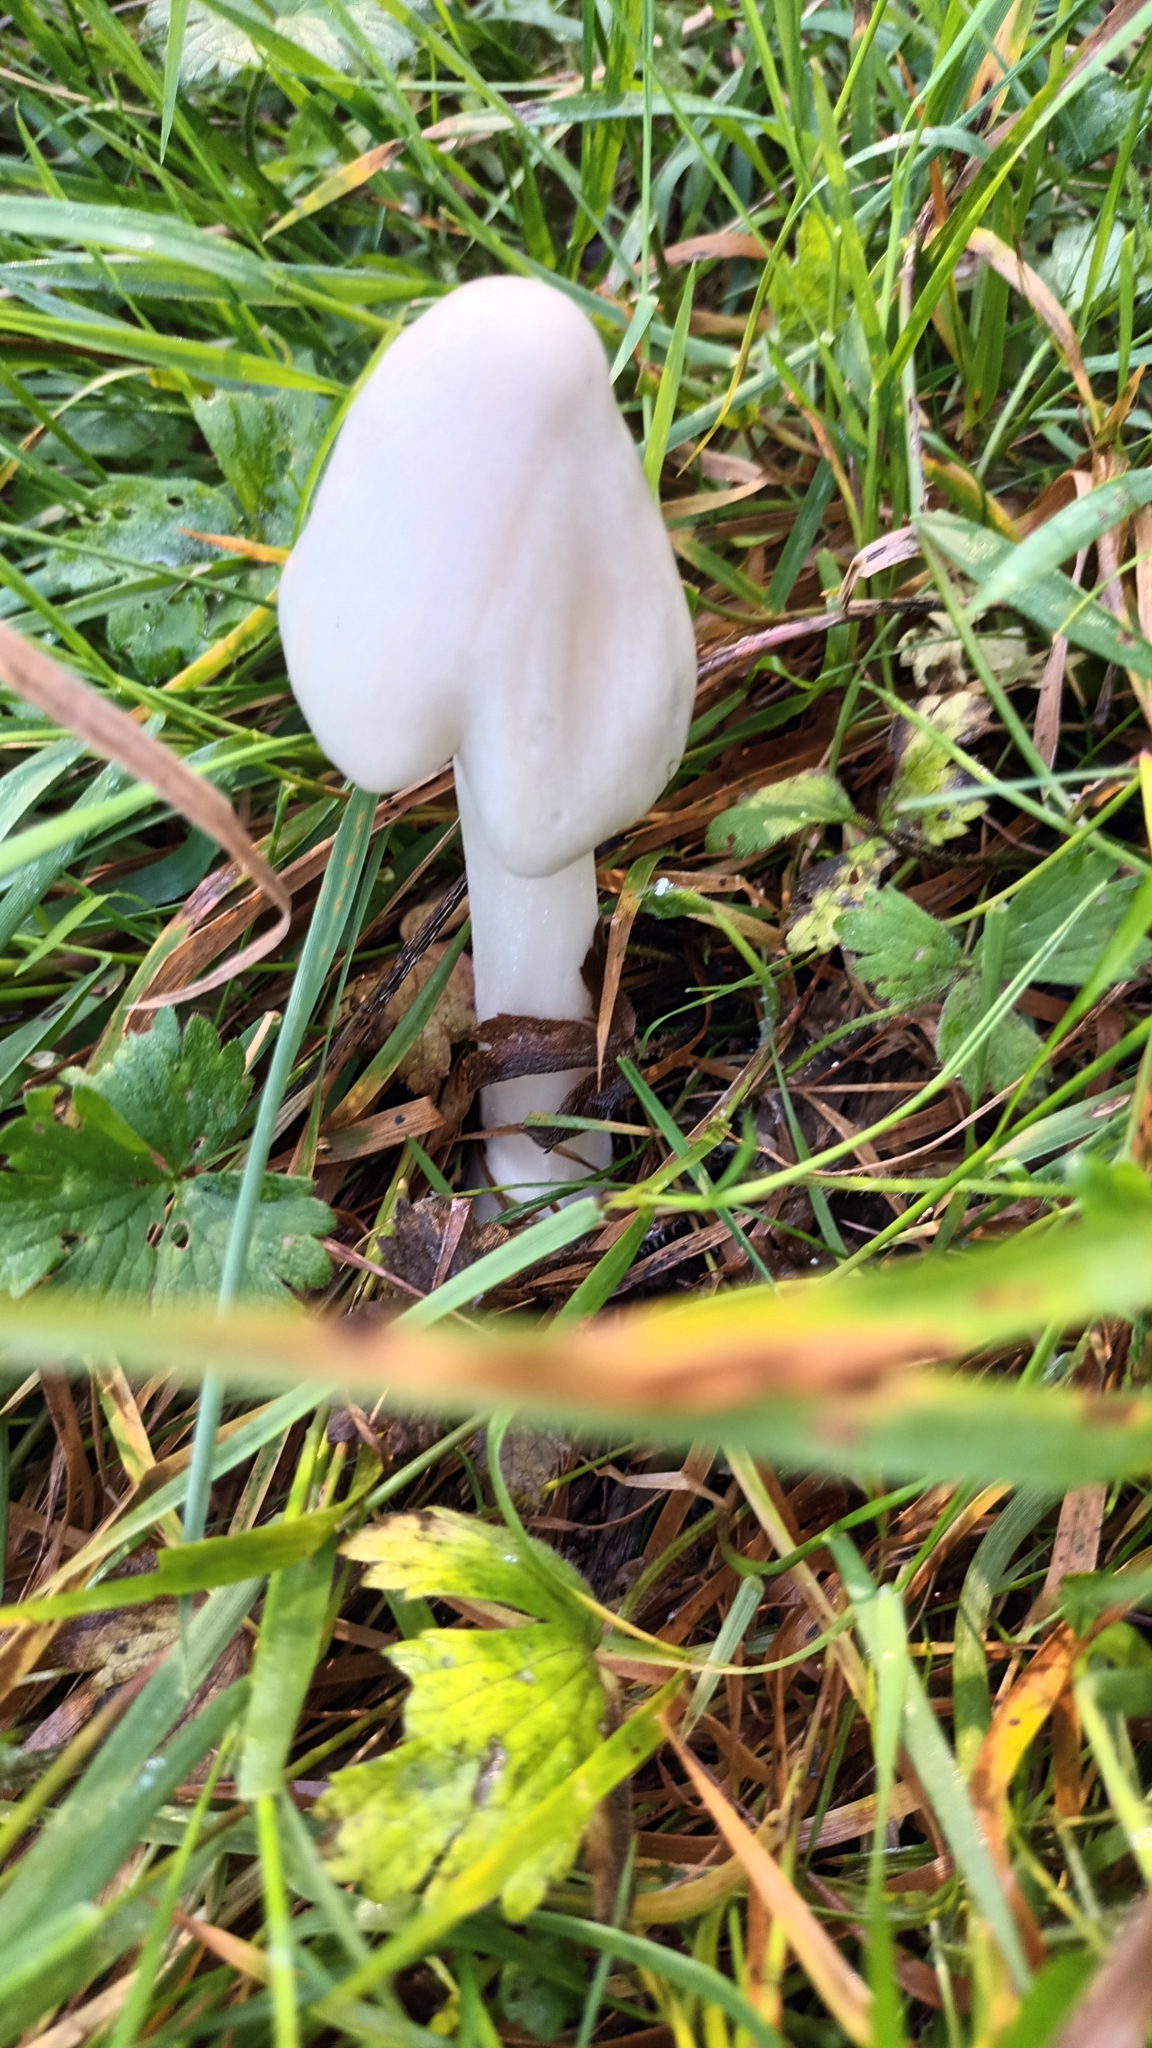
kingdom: Fungi
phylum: Basidiomycota
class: Agaricomycetes
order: Agaricales
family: Pluteaceae
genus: Volvopluteus
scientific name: Volvopluteus gloiocephalus
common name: Stubble rosegill
